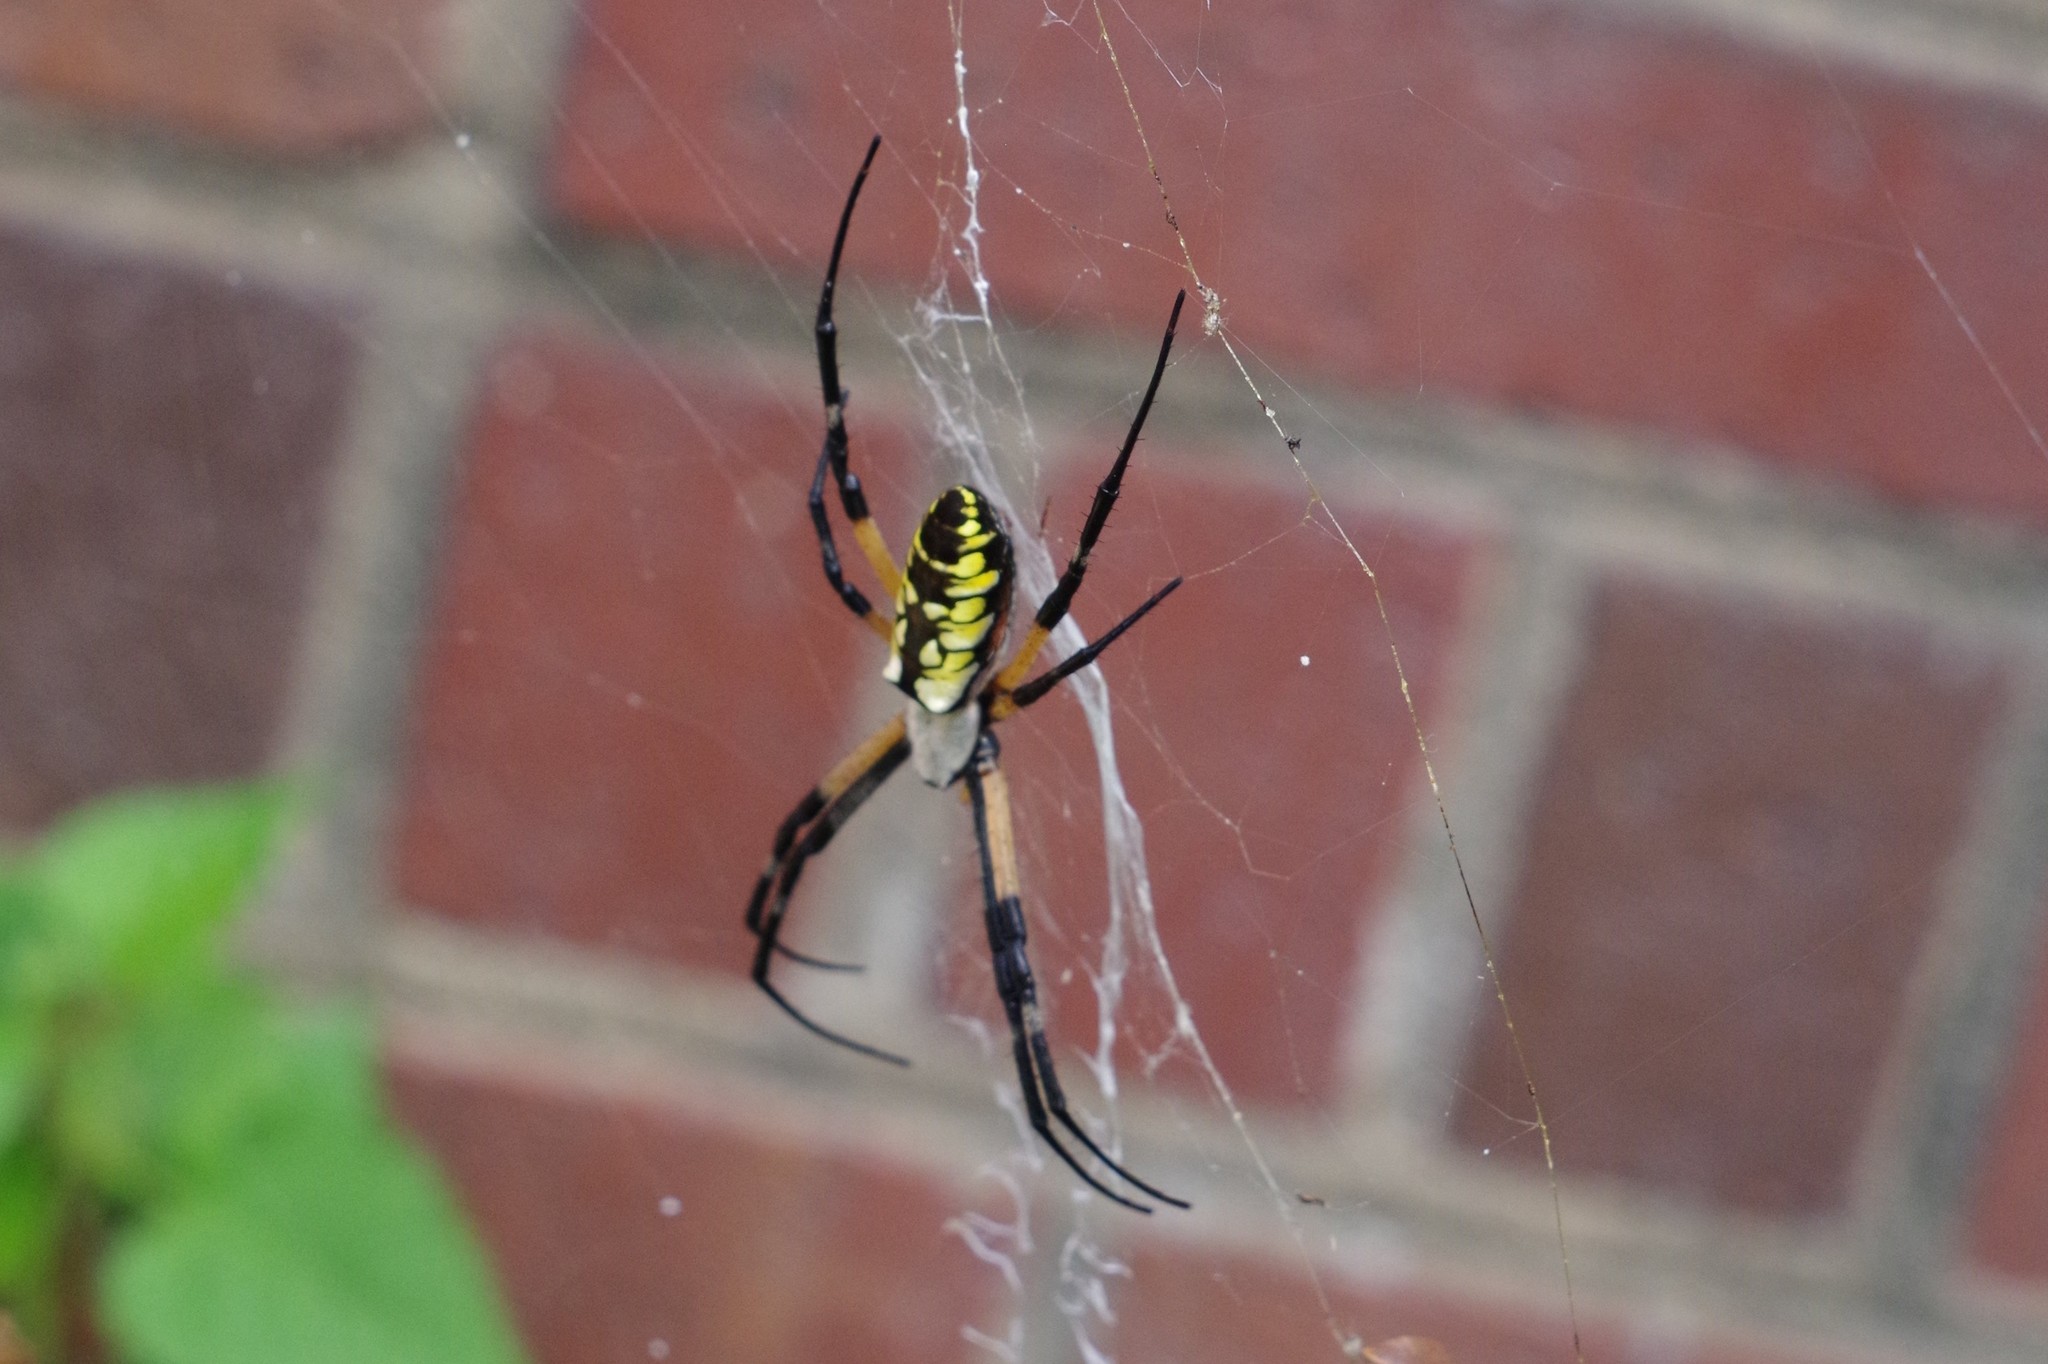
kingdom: Animalia
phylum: Arthropoda
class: Arachnida
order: Araneae
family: Araneidae
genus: Argiope
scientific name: Argiope aurantia
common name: Orb weavers
